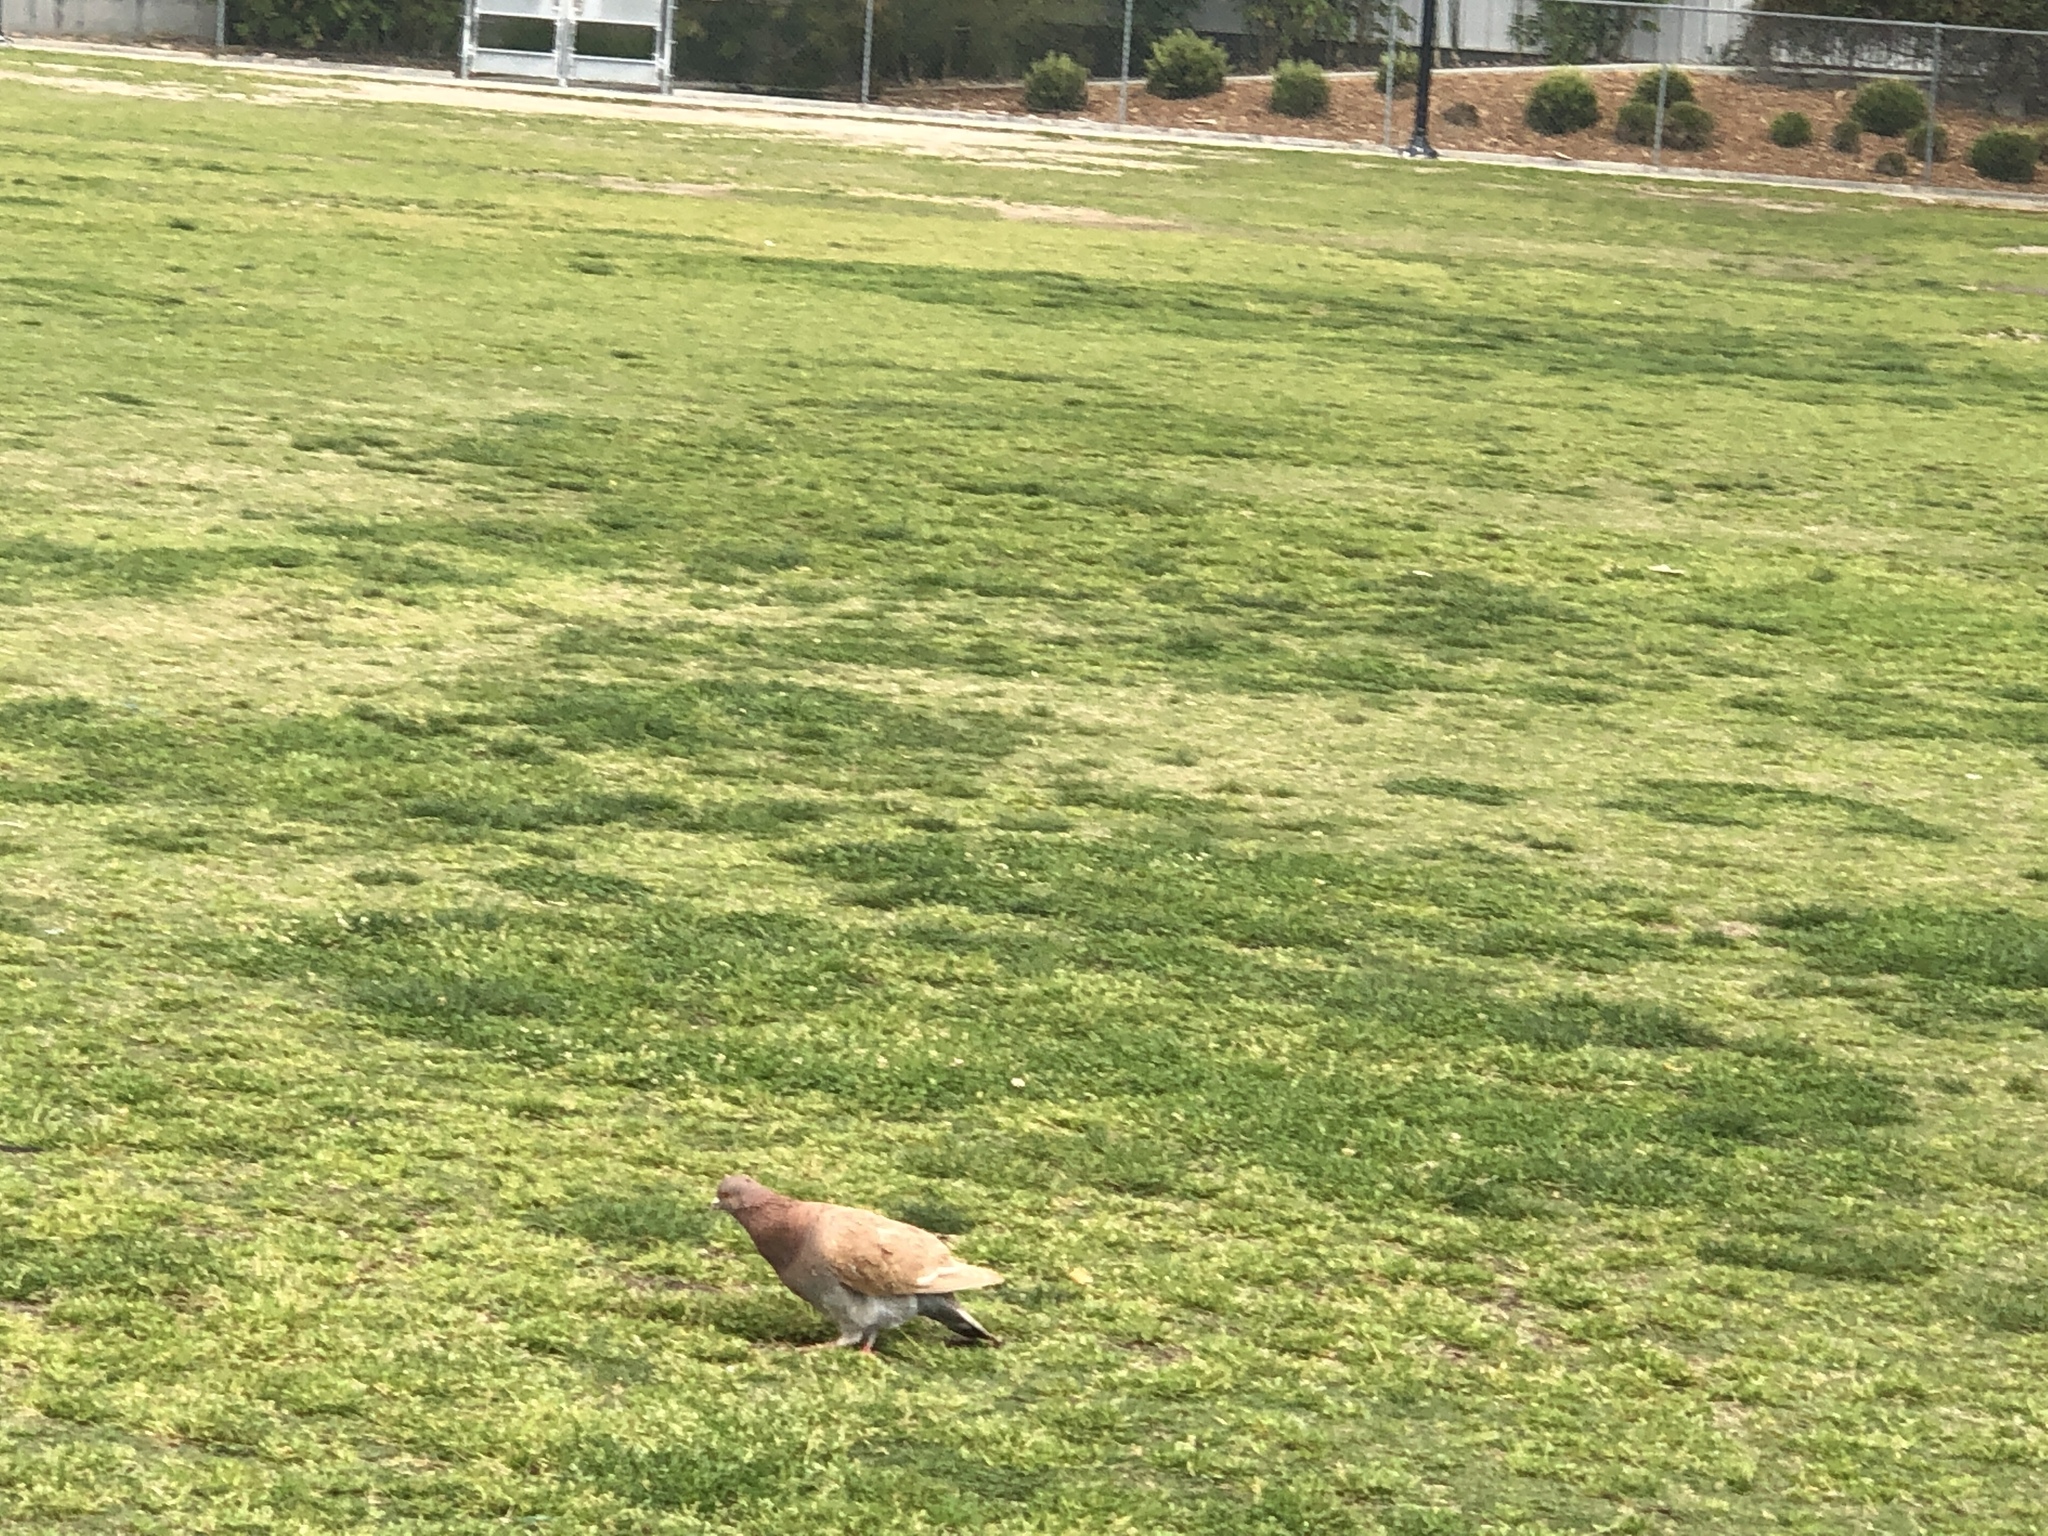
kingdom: Animalia
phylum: Chordata
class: Aves
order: Columbiformes
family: Columbidae
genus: Columba
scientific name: Columba livia
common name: Rock pigeon
